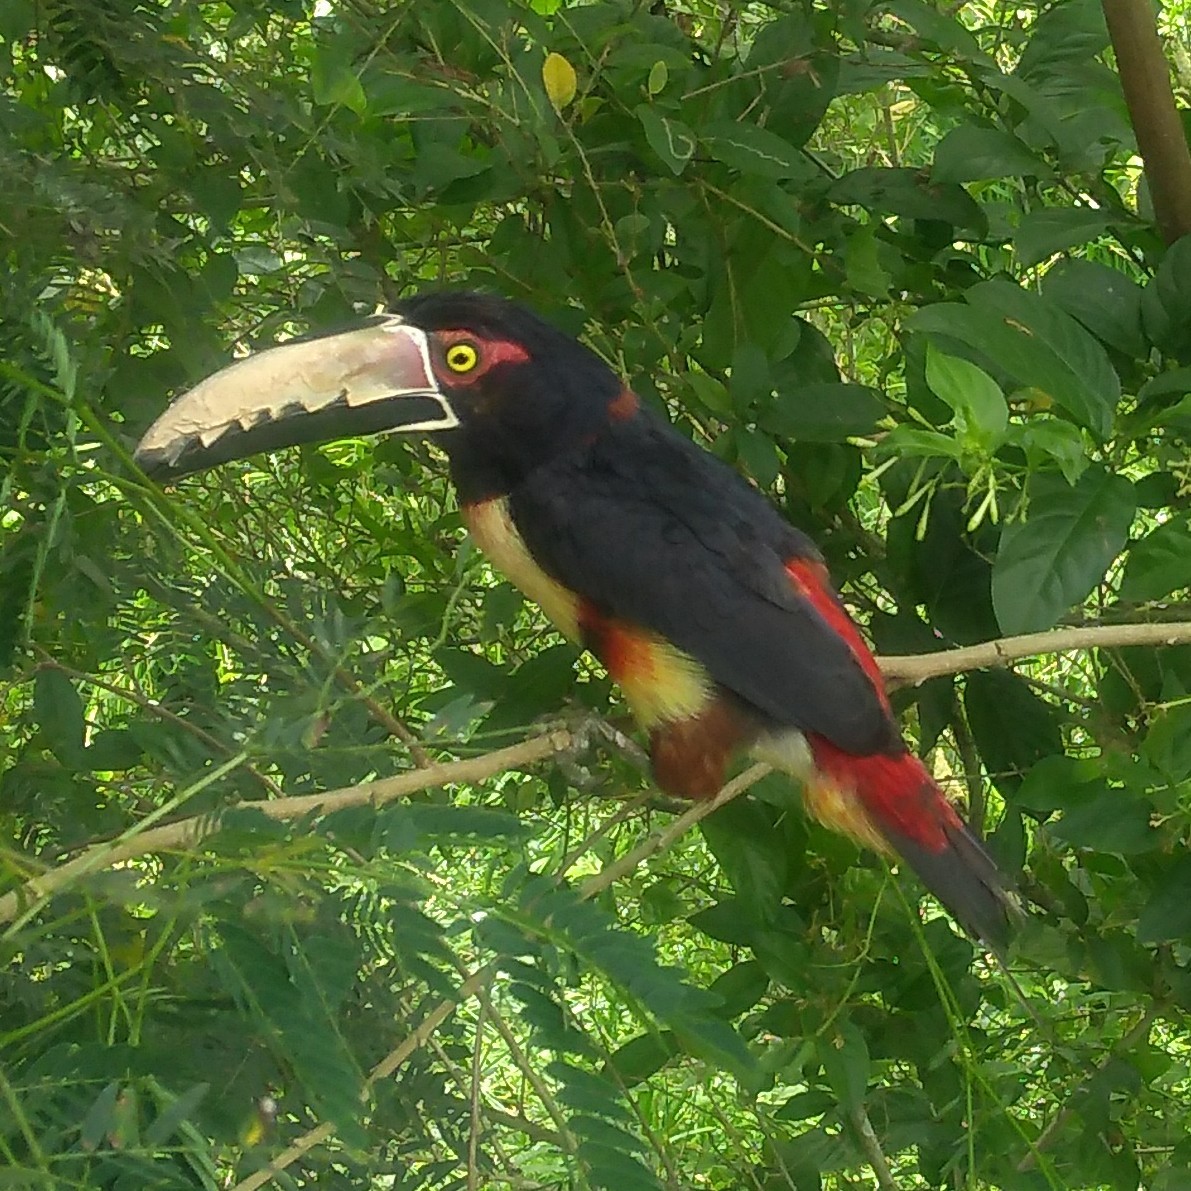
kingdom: Animalia
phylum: Chordata
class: Aves
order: Piciformes
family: Ramphastidae
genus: Pteroglossus
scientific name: Pteroglossus torquatus
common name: Collared aracari
